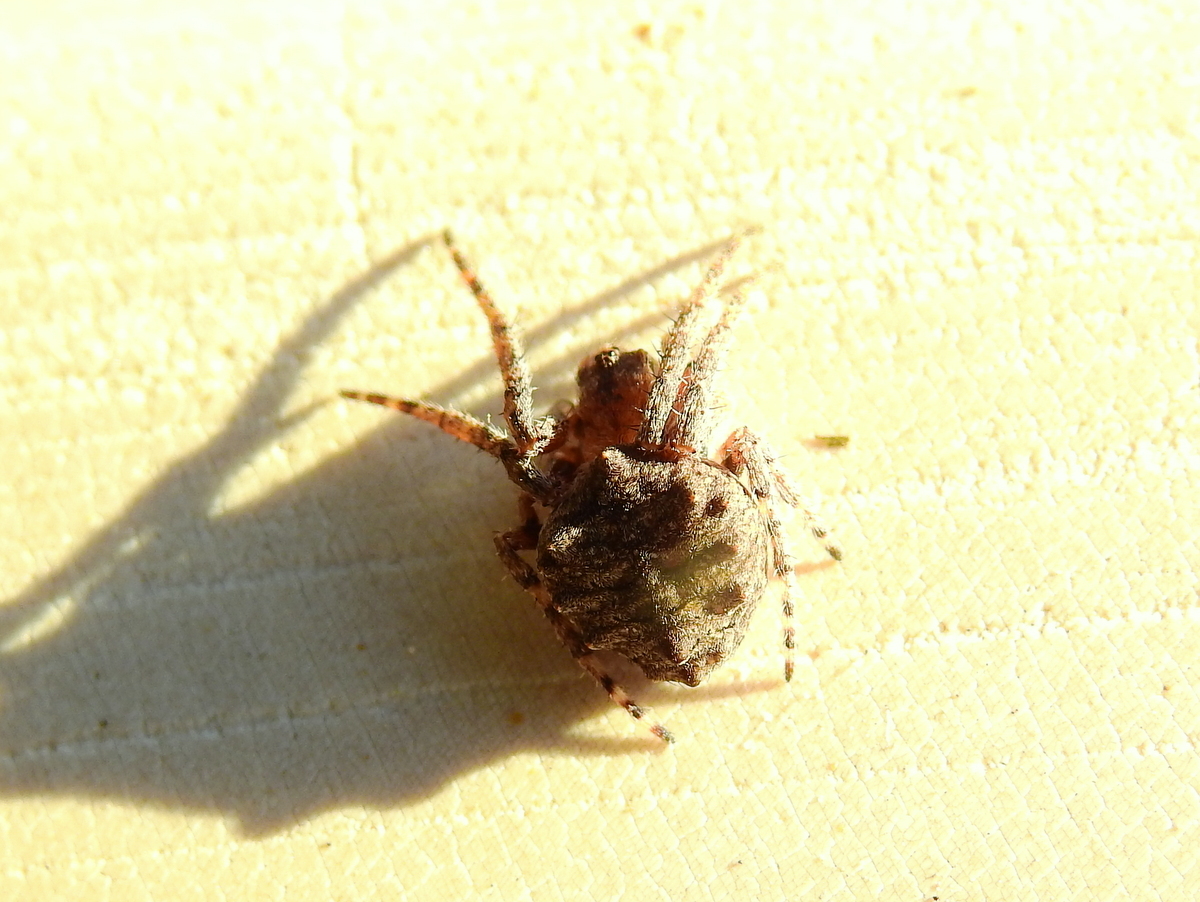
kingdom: Animalia
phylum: Arthropoda
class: Arachnida
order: Araneae
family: Araneidae
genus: Parawixia
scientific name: Parawixia audax
